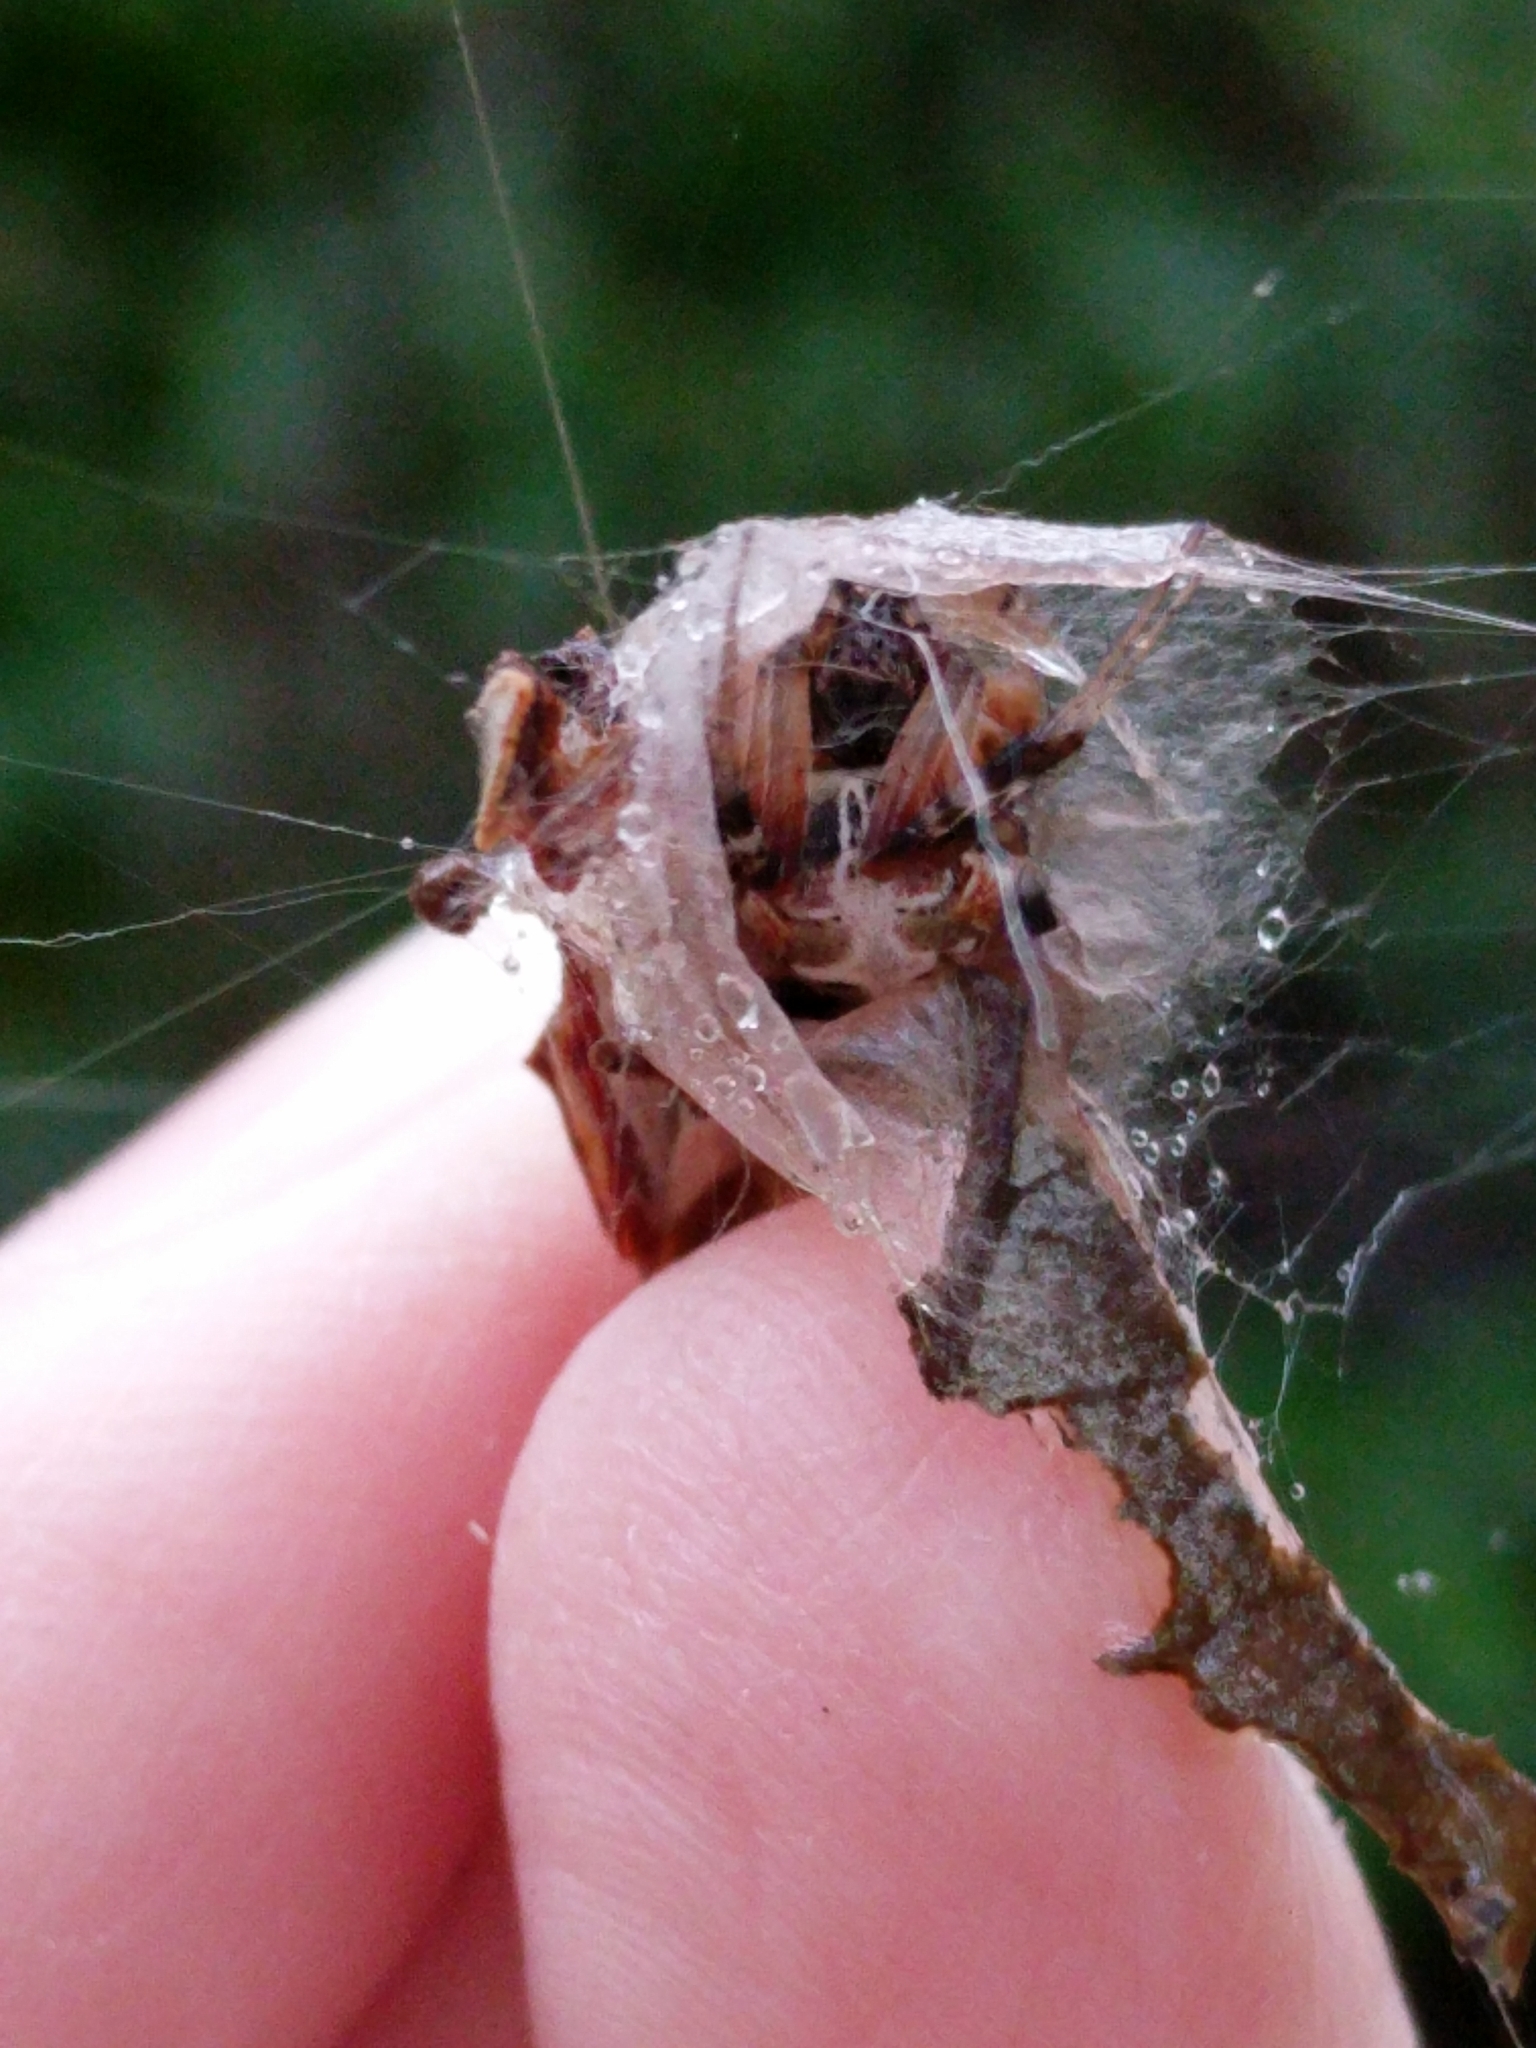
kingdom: Animalia
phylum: Arthropoda
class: Arachnida
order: Araneae
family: Araneidae
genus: Metepeira
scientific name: Metepeira labyrinthea
